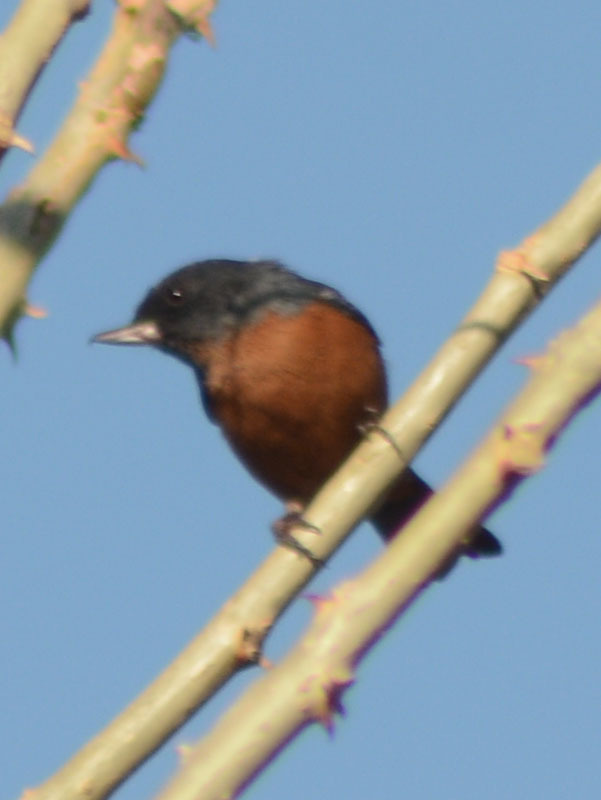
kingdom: Animalia
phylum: Chordata
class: Aves
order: Passeriformes
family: Thraupidae
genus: Diglossa
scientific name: Diglossa baritula
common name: Cinnamon-bellied flowerpiercer
